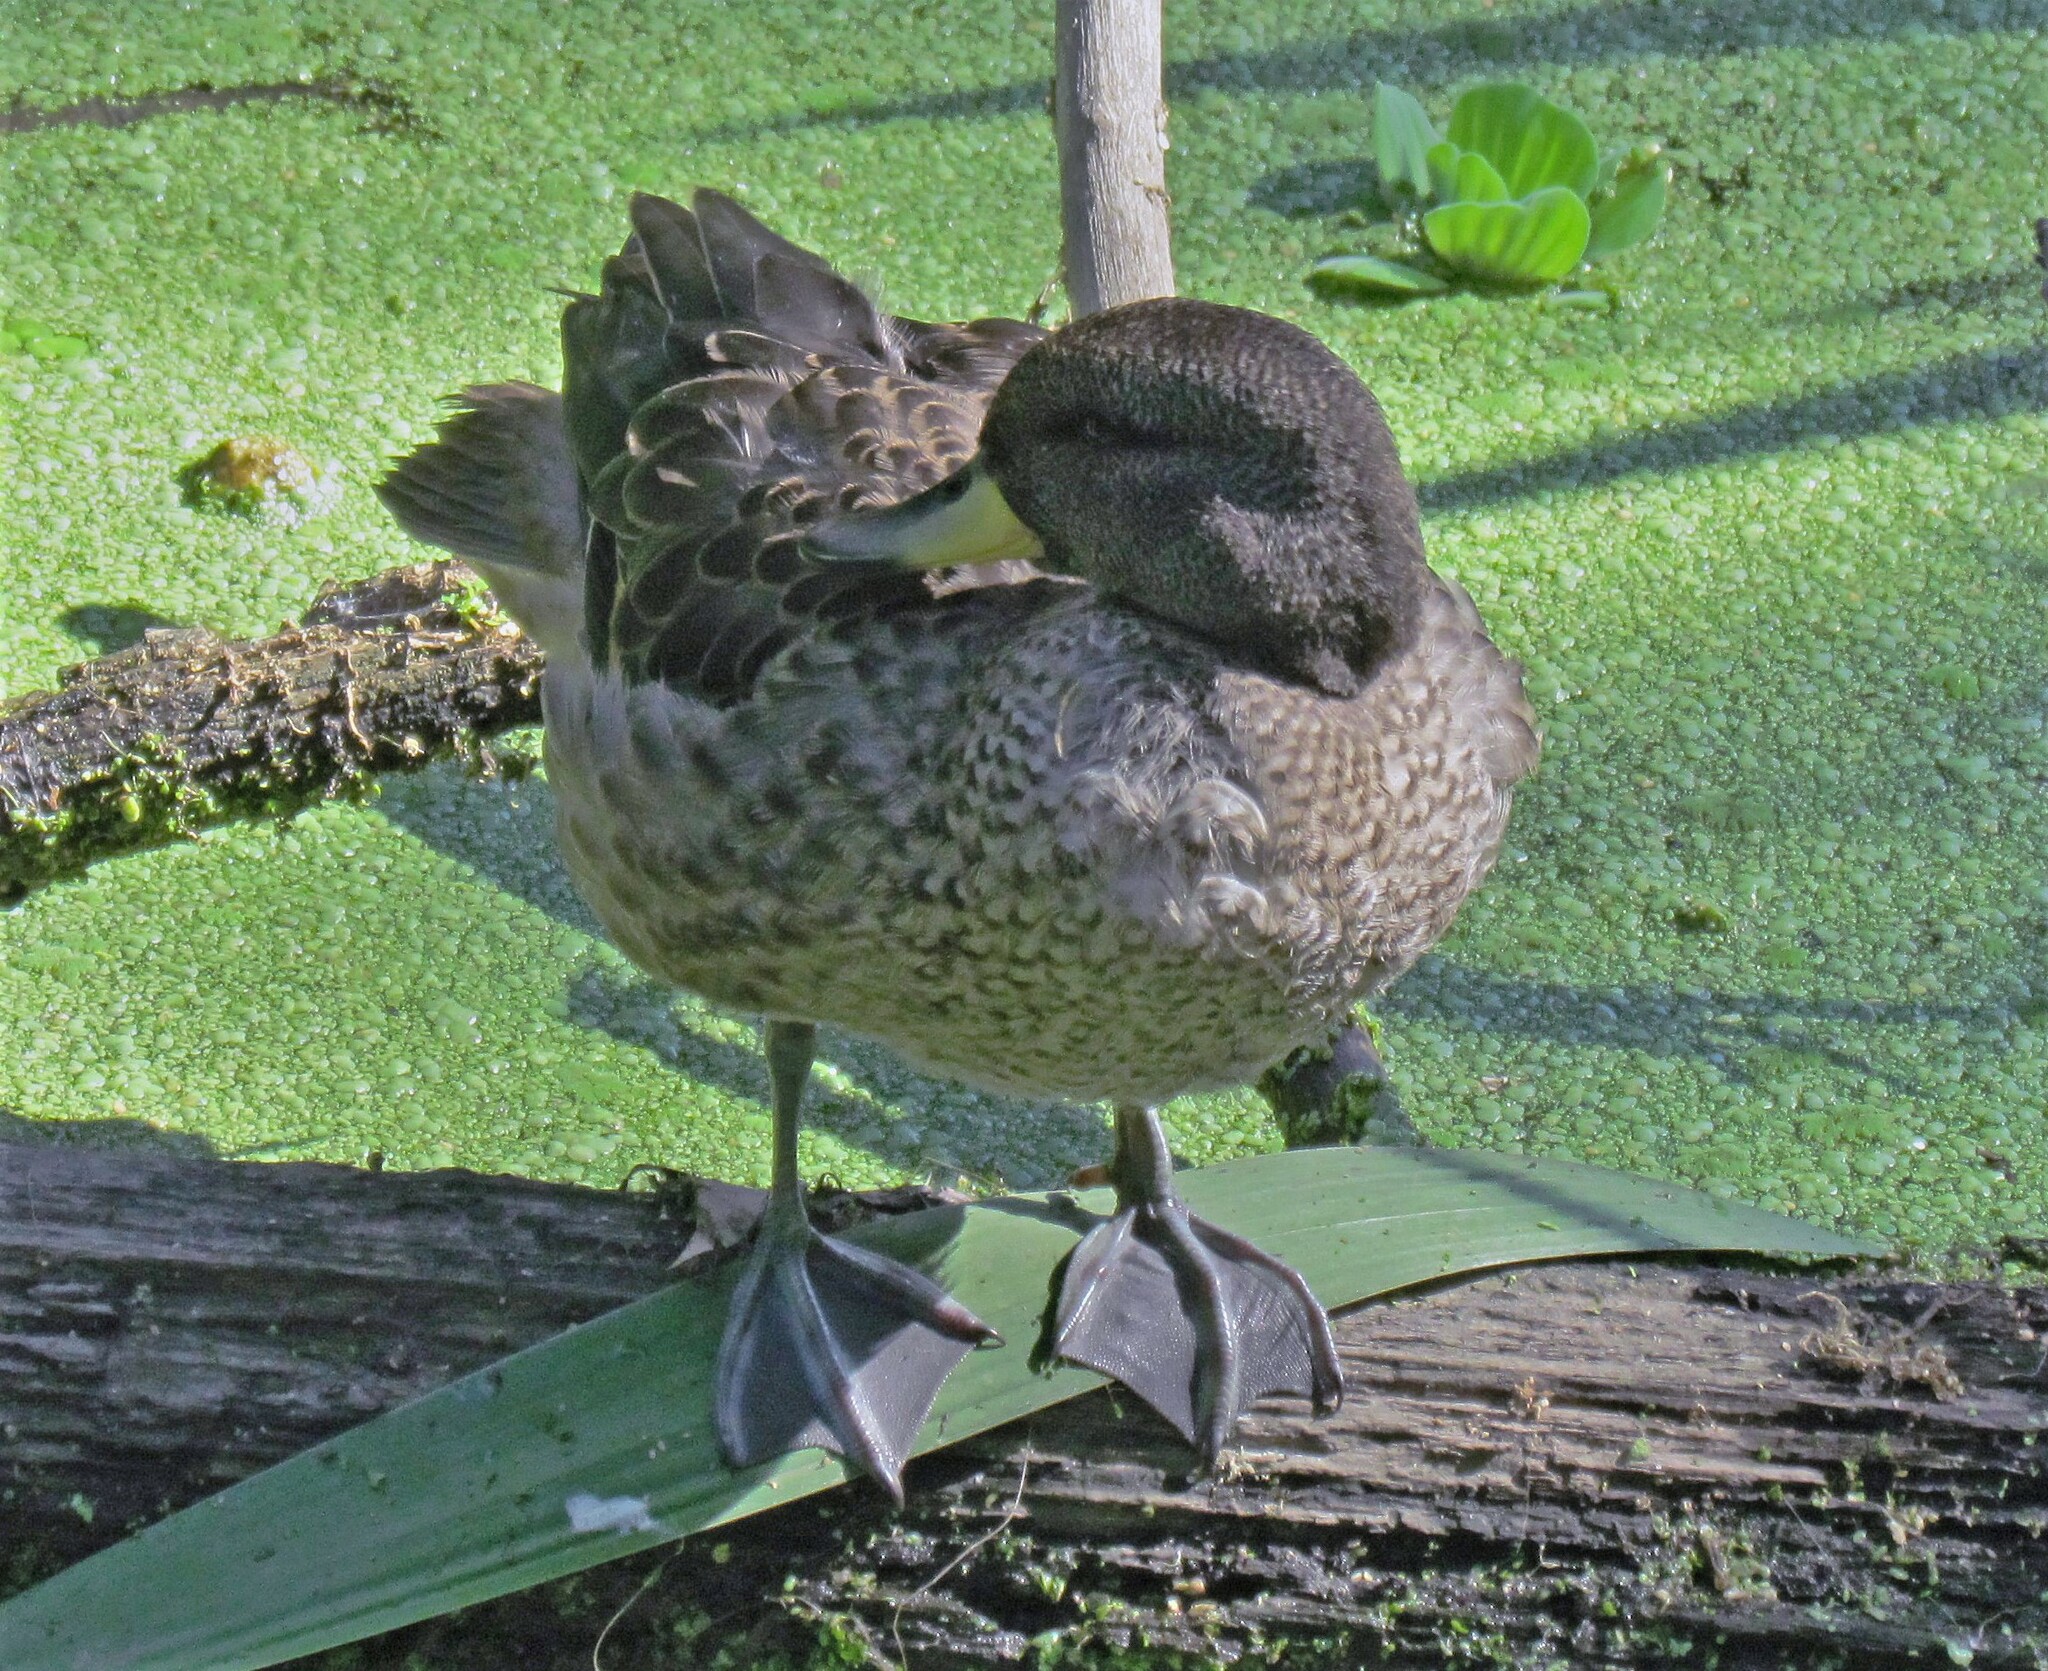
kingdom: Animalia
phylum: Chordata
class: Aves
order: Anseriformes
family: Anatidae
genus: Anas
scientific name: Anas flavirostris
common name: Yellow-billed teal
